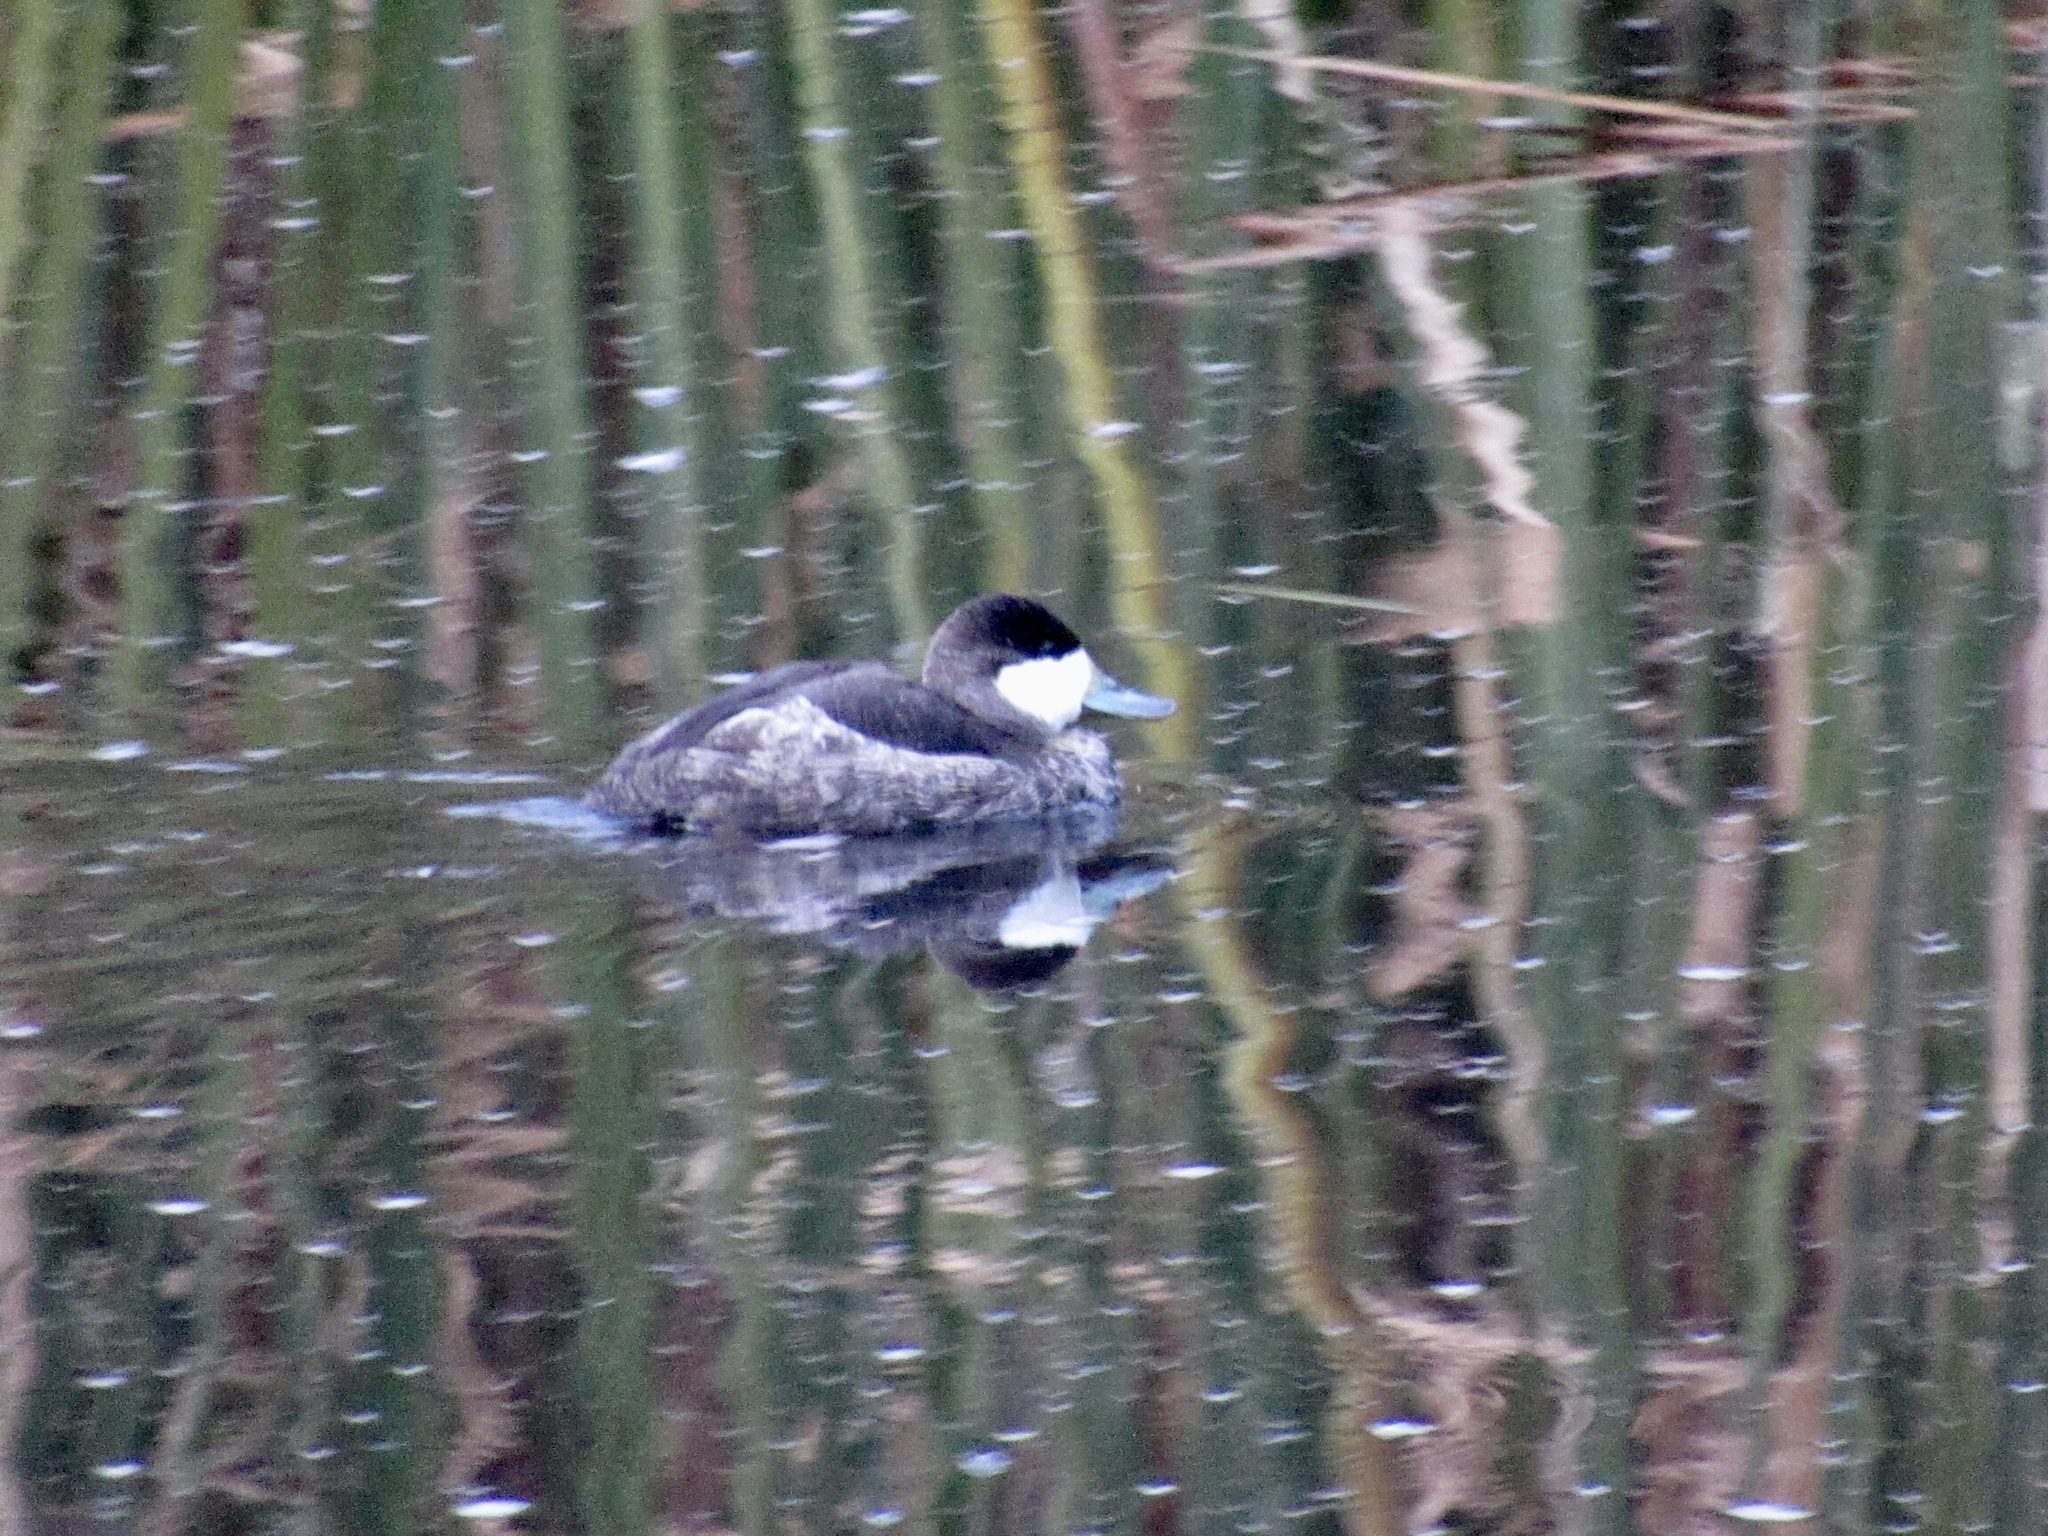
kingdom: Animalia
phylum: Chordata
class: Aves
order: Anseriformes
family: Anatidae
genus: Oxyura
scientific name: Oxyura jamaicensis
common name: Ruddy duck
